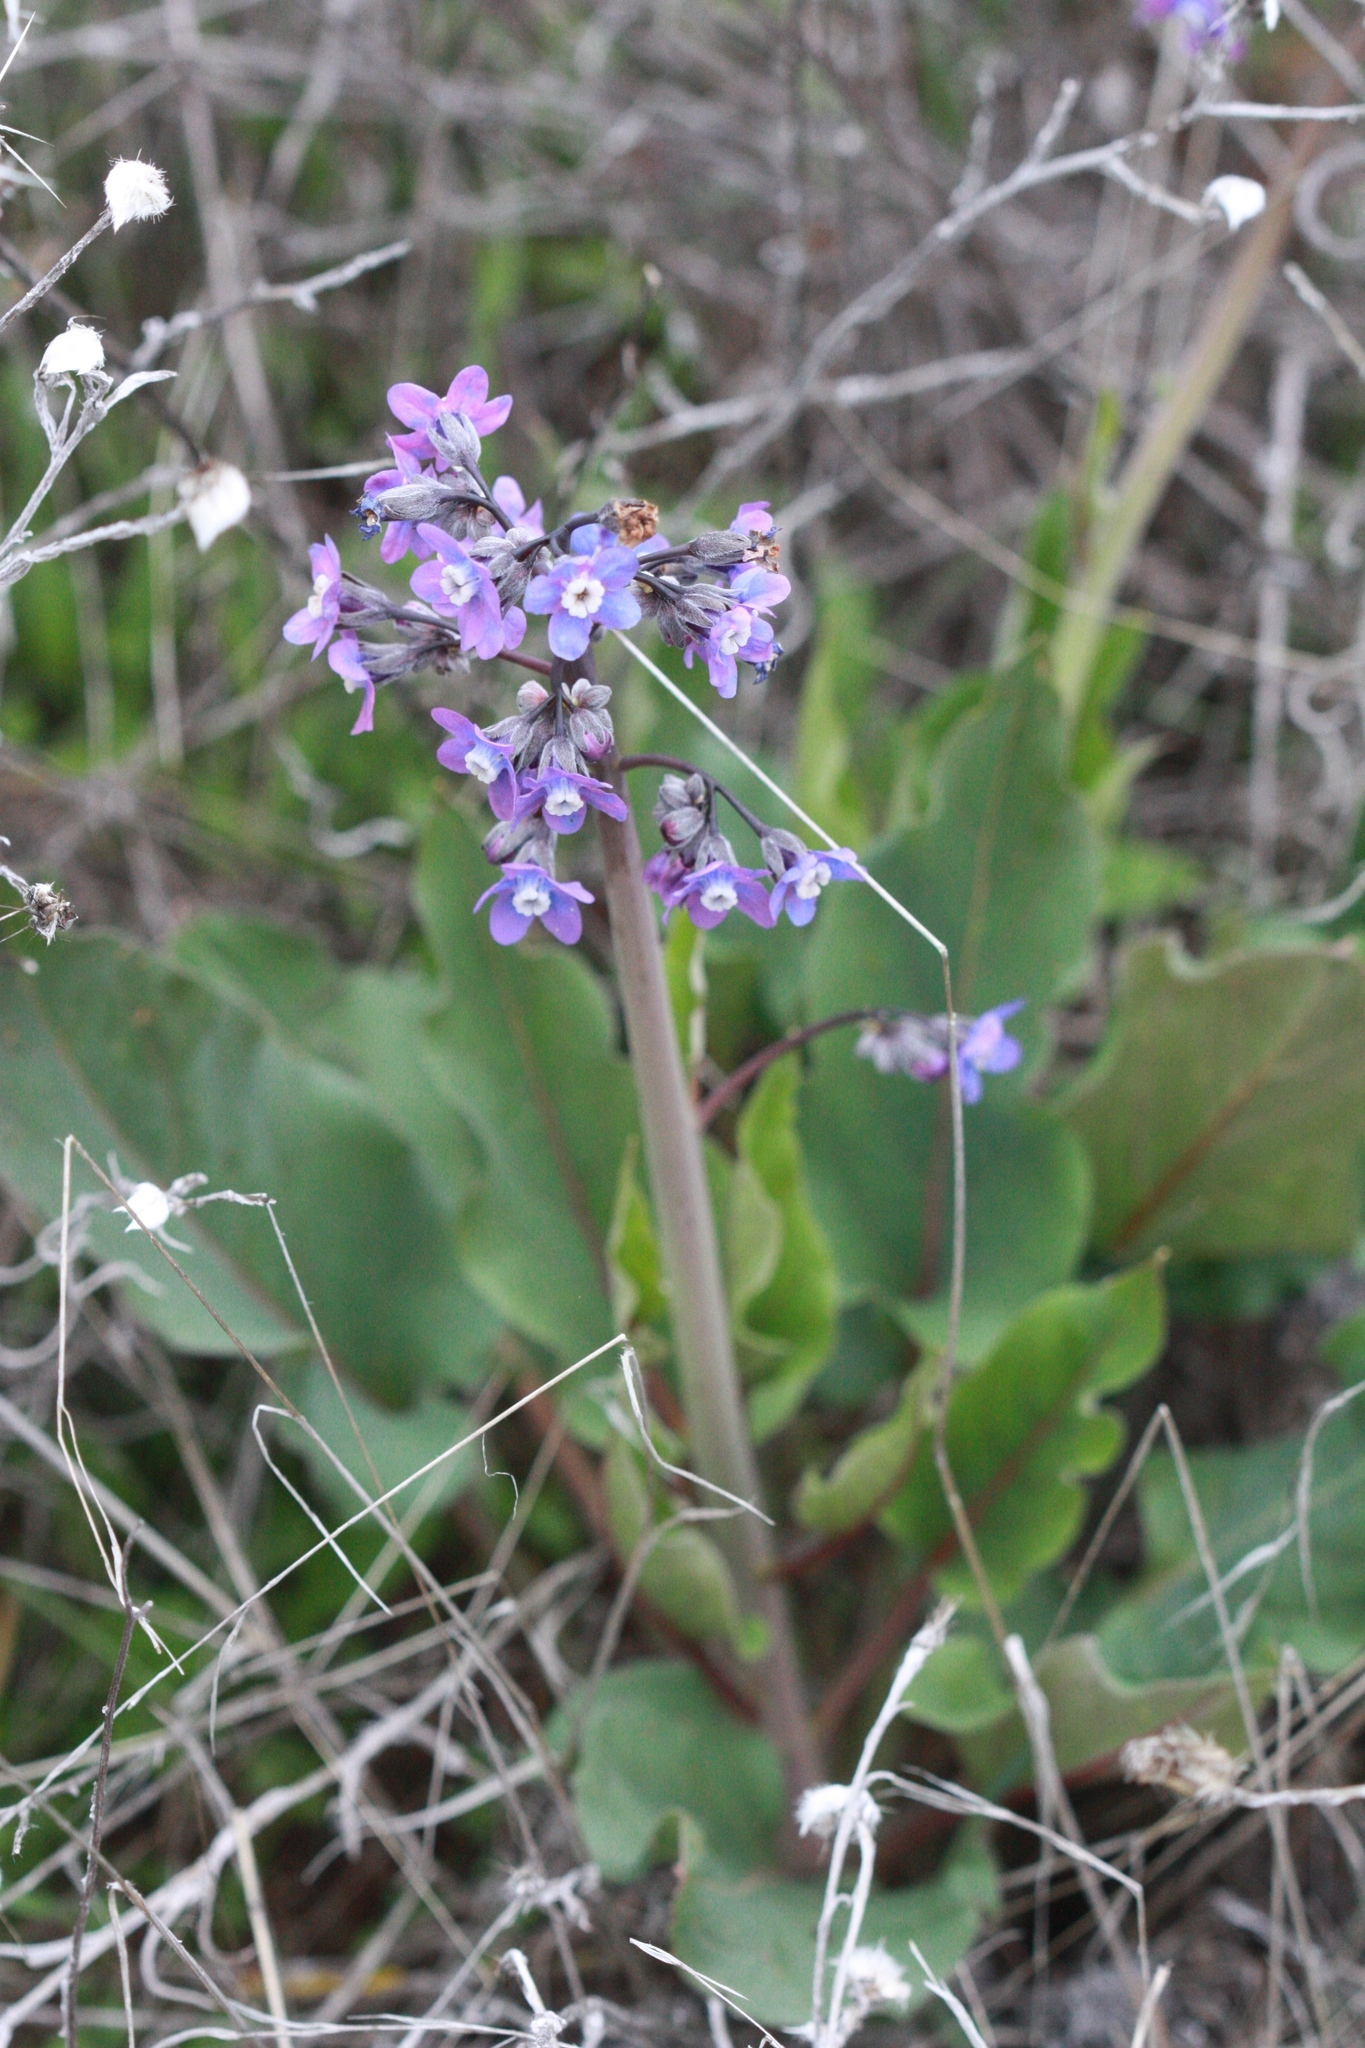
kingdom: Plantae
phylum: Tracheophyta
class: Magnoliopsida
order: Boraginales
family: Boraginaceae
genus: Adelinia
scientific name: Adelinia grande
